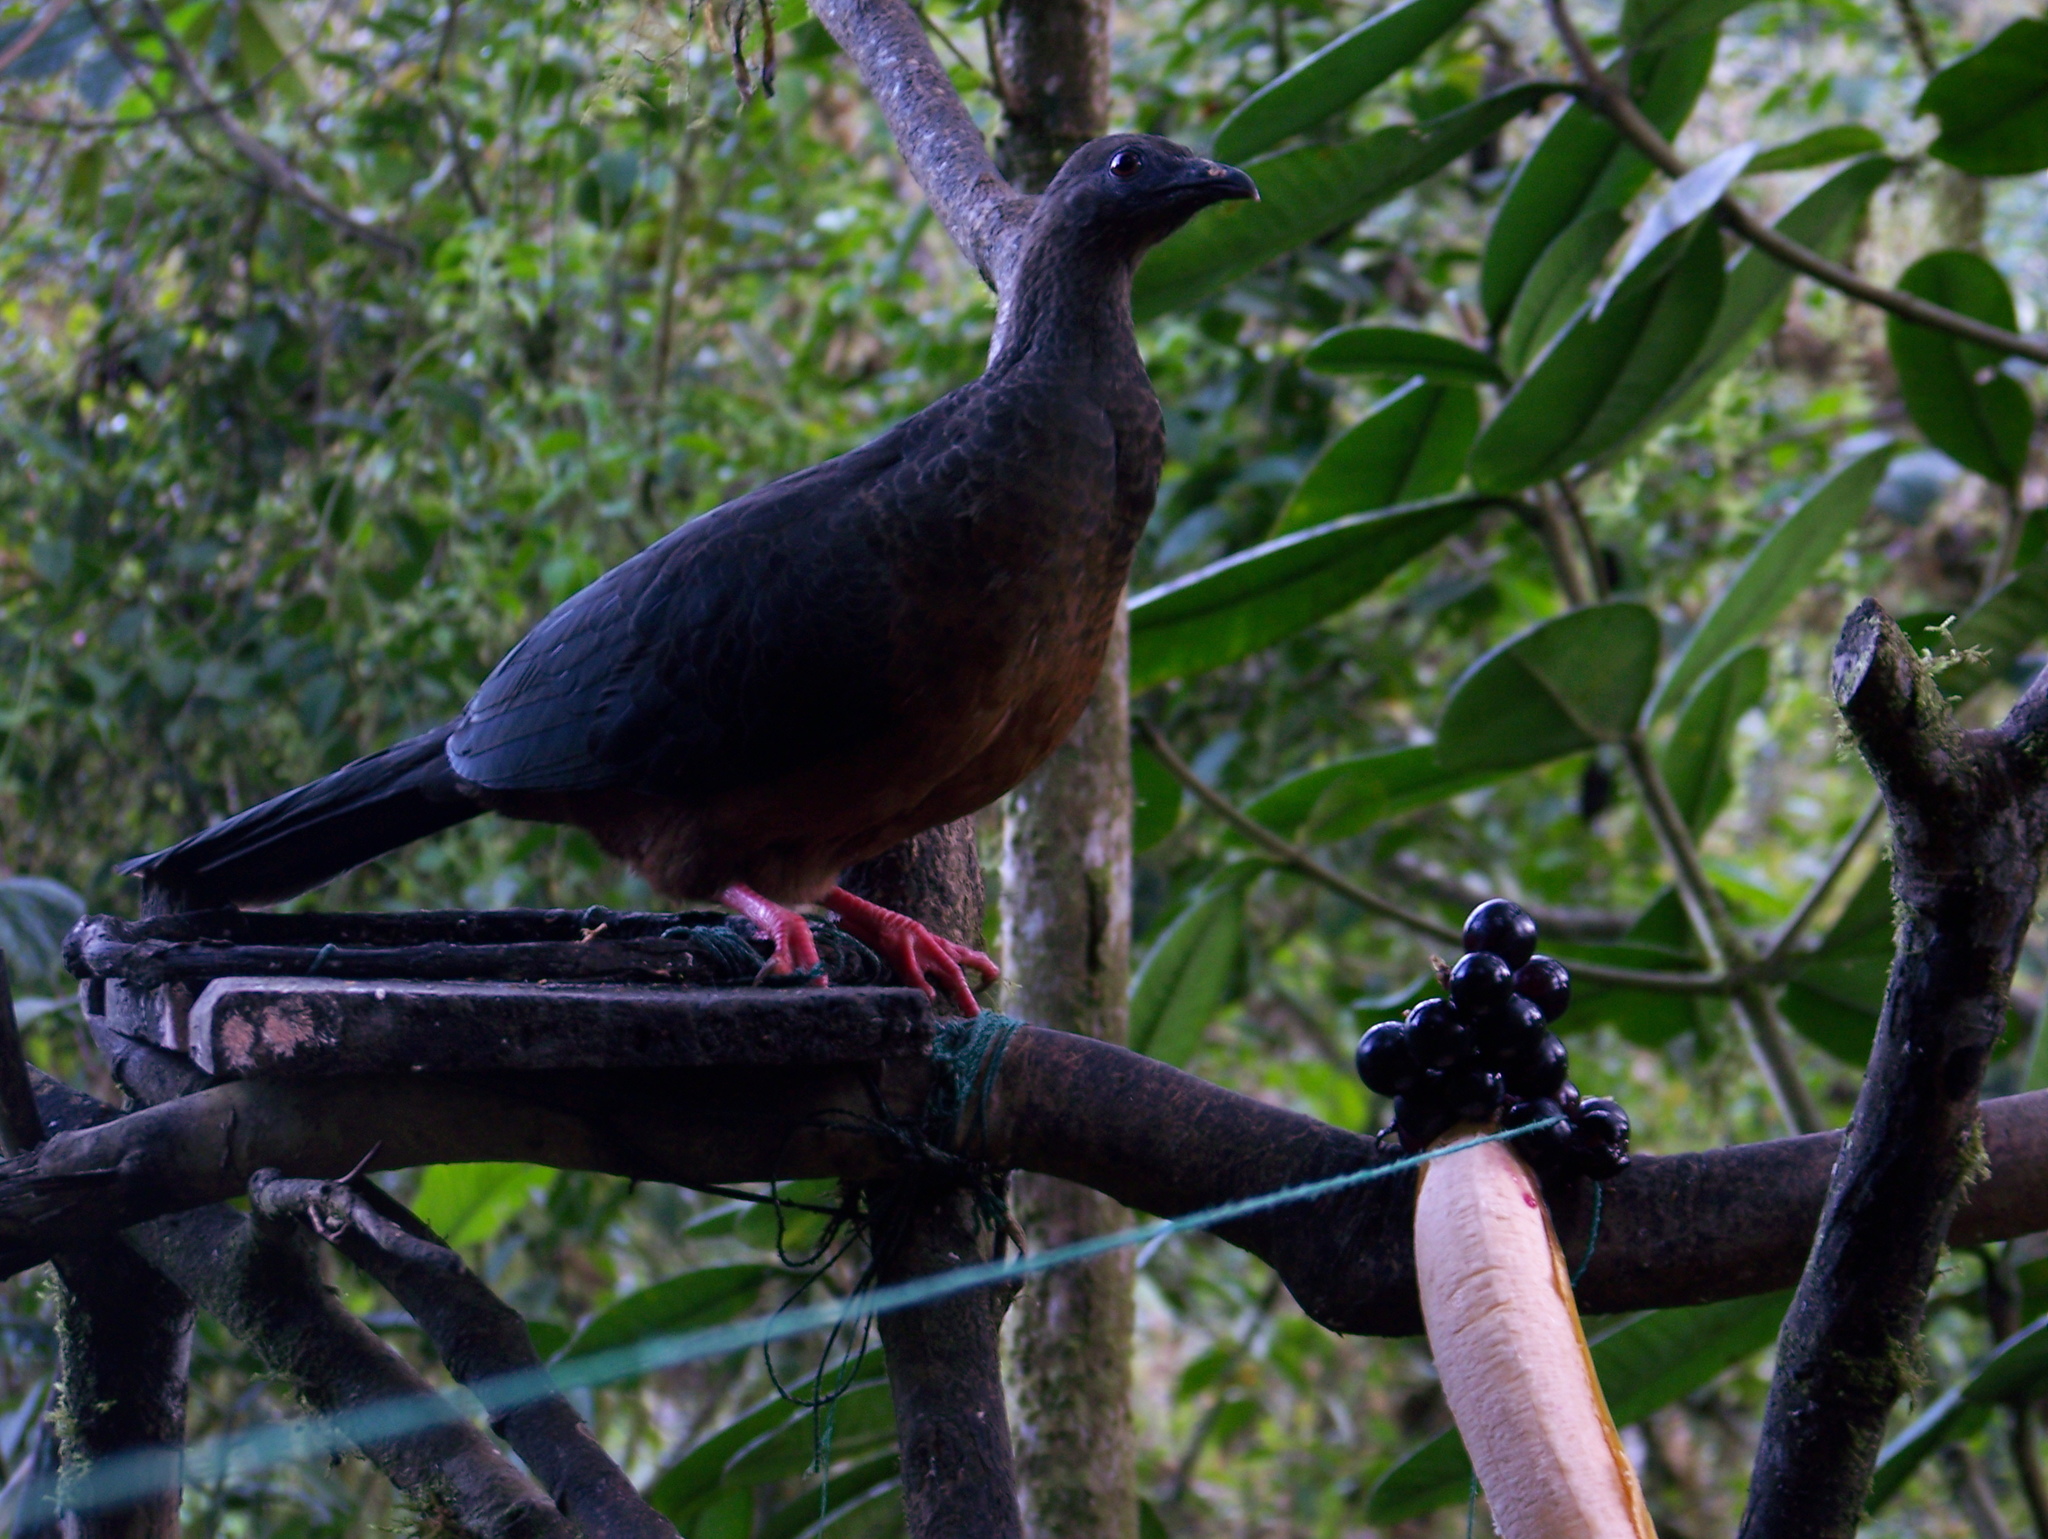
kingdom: Animalia
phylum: Chordata
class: Aves
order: Galliformes
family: Cracidae
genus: Chamaepetes
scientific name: Chamaepetes goudotii
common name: Sickle-winged guan
